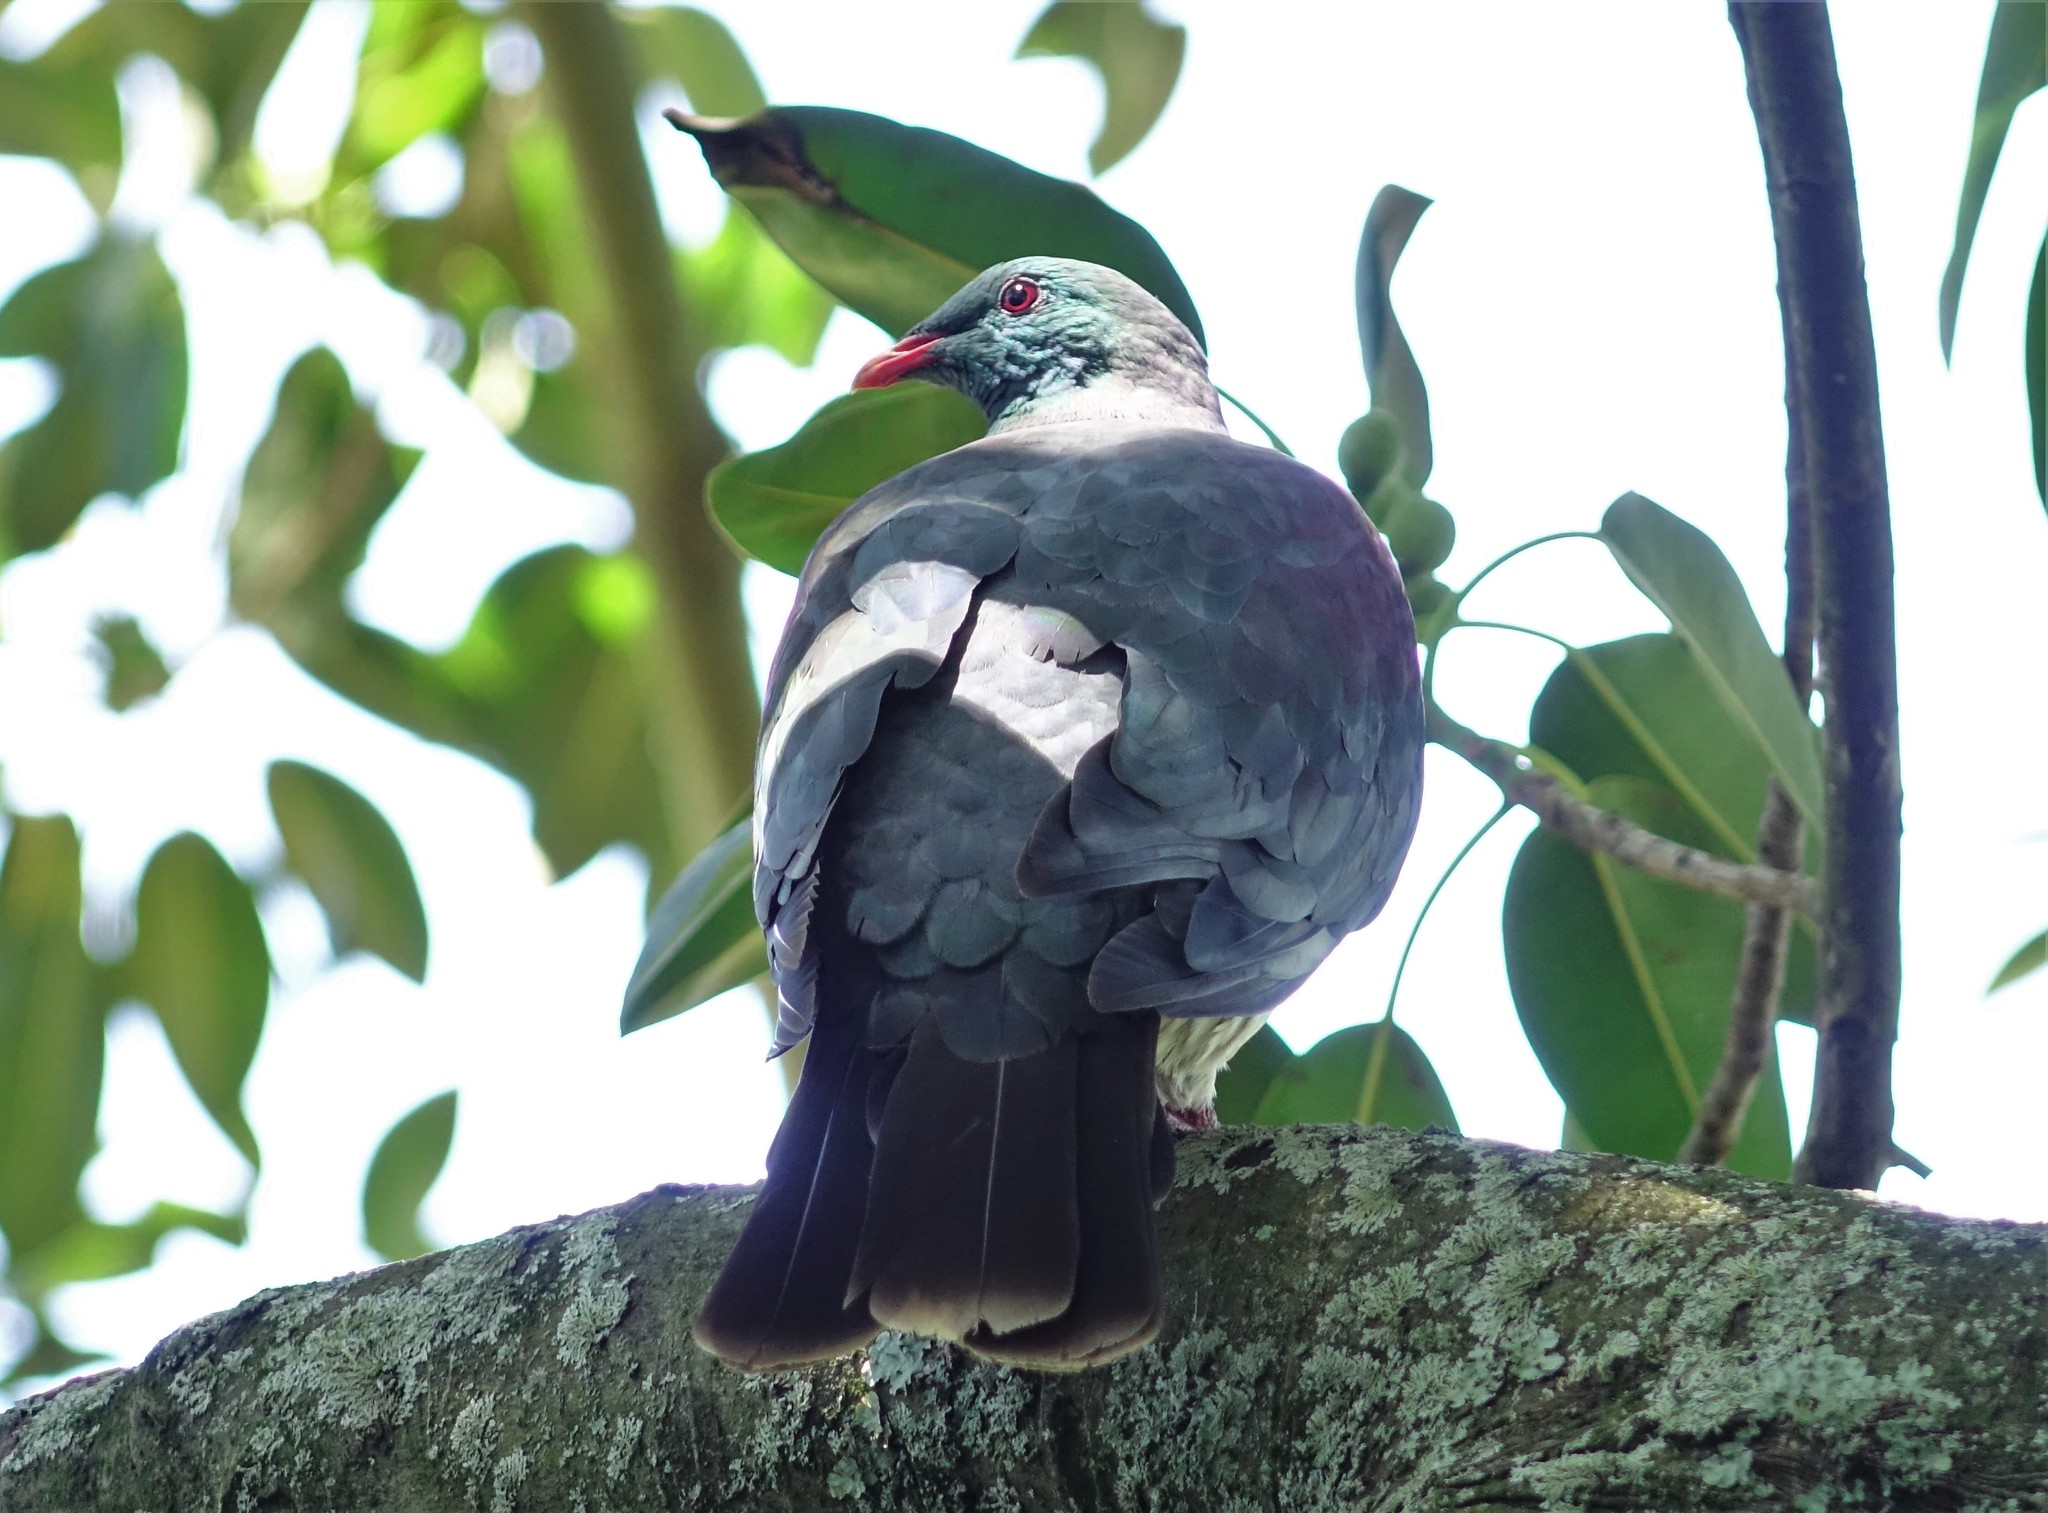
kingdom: Animalia
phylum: Chordata
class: Aves
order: Columbiformes
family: Columbidae
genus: Hemiphaga
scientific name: Hemiphaga novaeseelandiae
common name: New zealand pigeon
